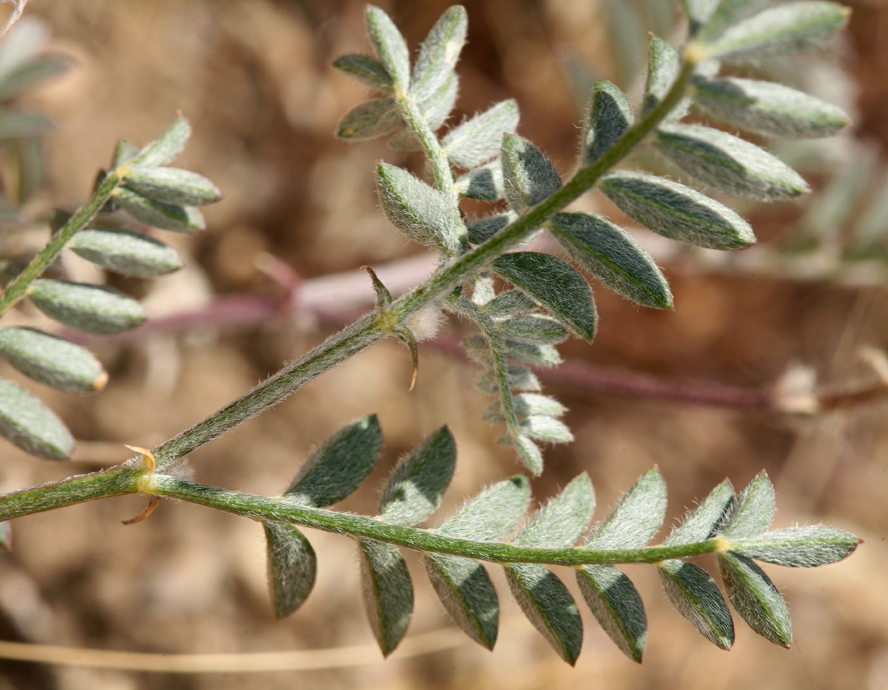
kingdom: Plantae
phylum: Tracheophyta
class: Magnoliopsida
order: Fabales
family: Fabaceae
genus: Astragalus
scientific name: Astragalus sepultipes
